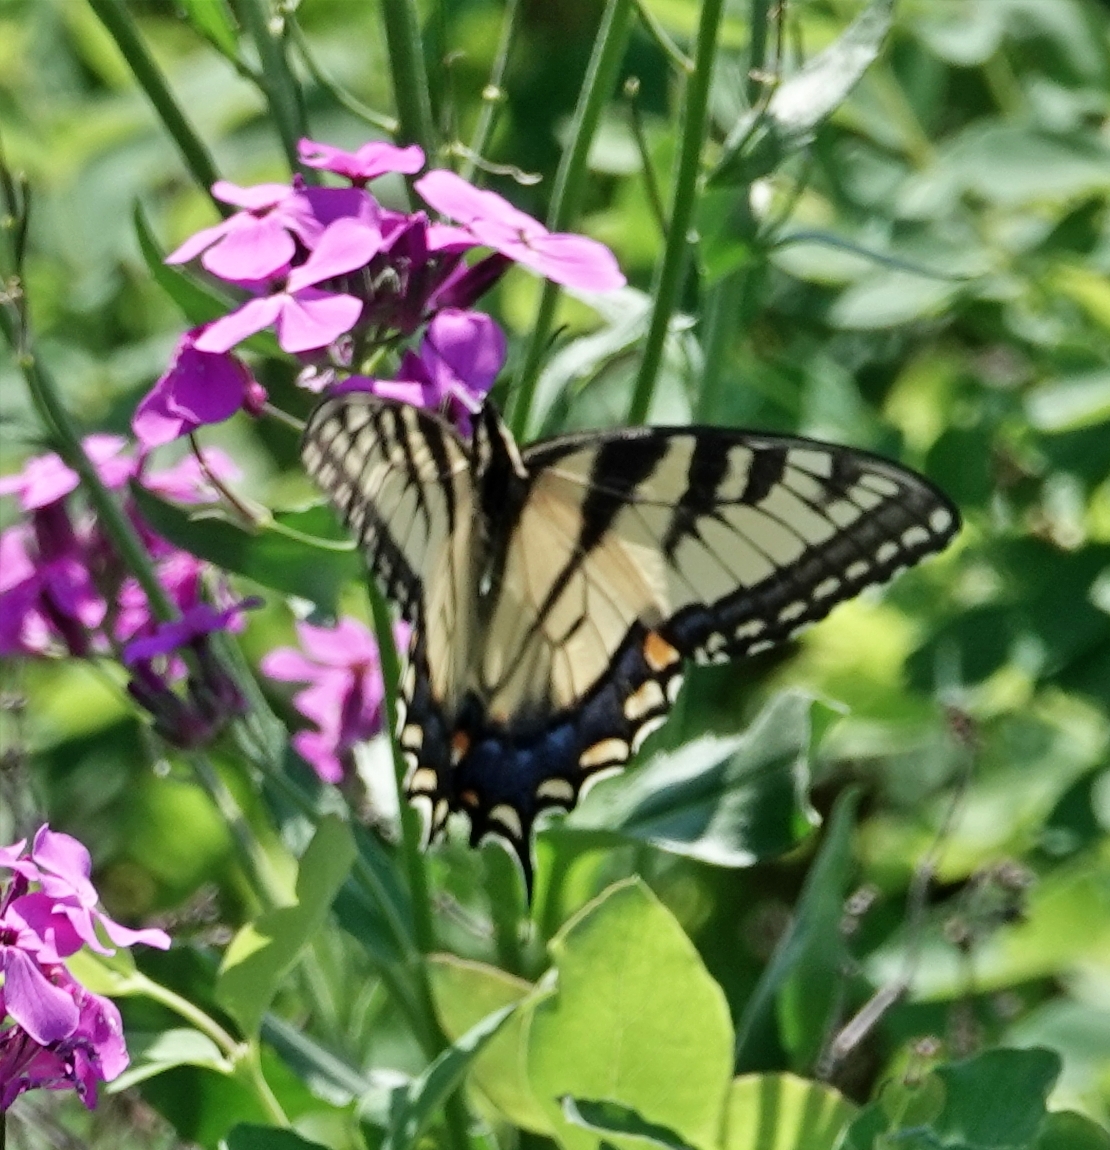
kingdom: Animalia
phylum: Arthropoda
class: Insecta
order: Lepidoptera
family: Papilionidae
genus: Papilio
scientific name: Papilio glaucus
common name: Tiger swallowtail
